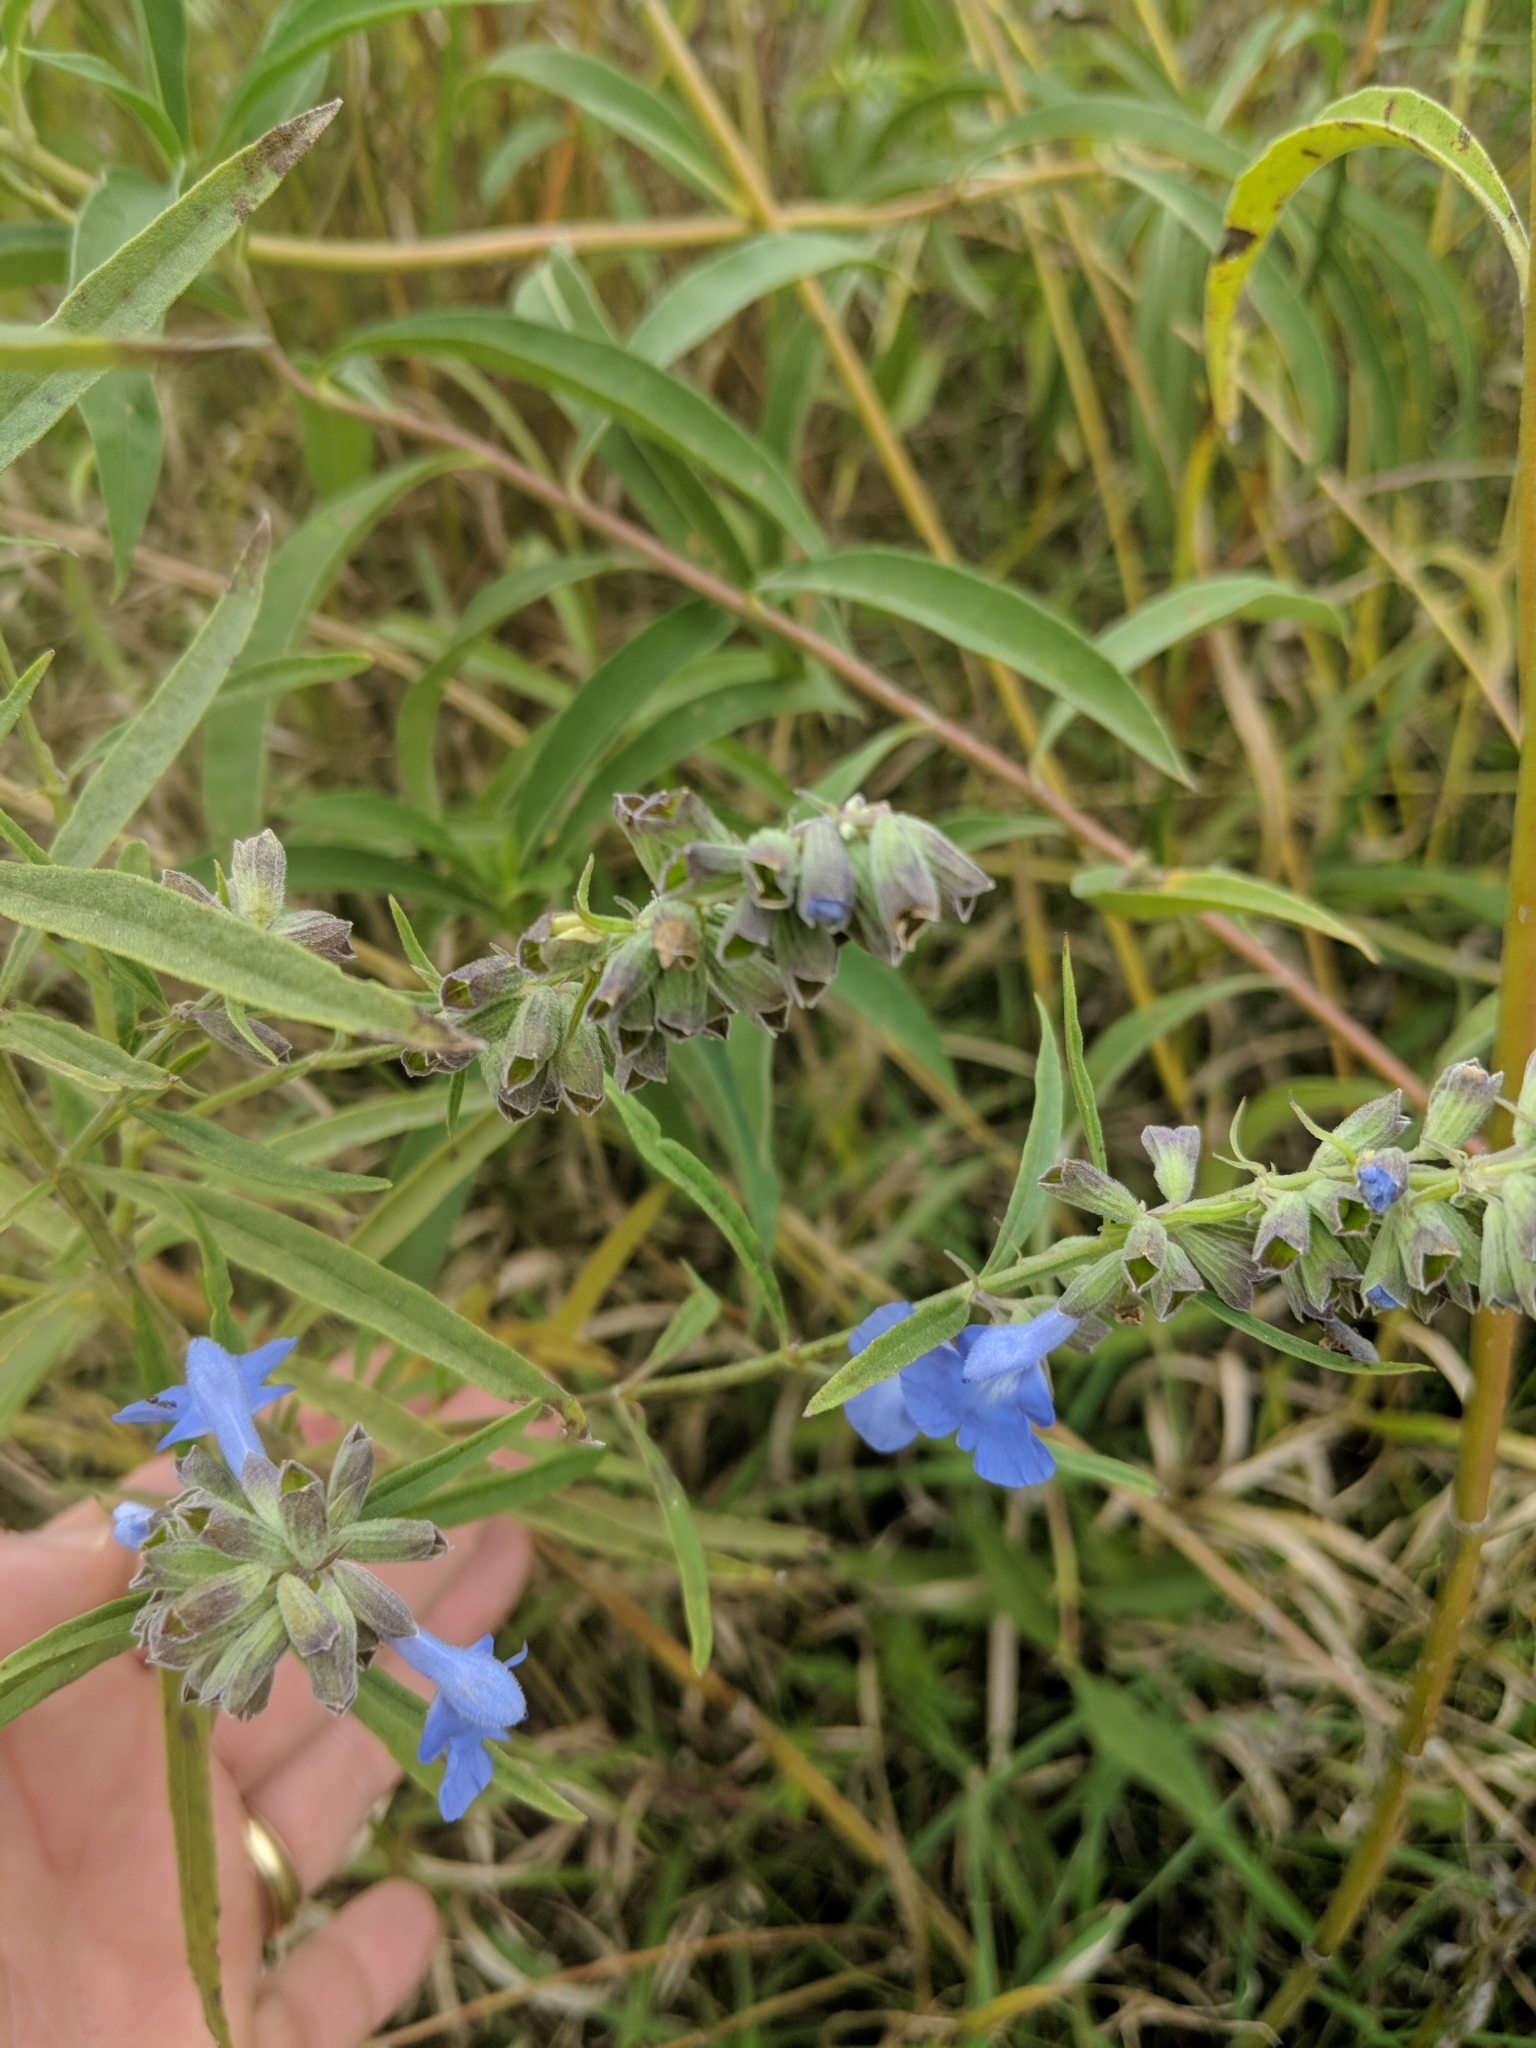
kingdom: Plantae
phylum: Tracheophyta
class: Magnoliopsida
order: Lamiales
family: Lamiaceae
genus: Salvia
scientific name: Salvia azurea
